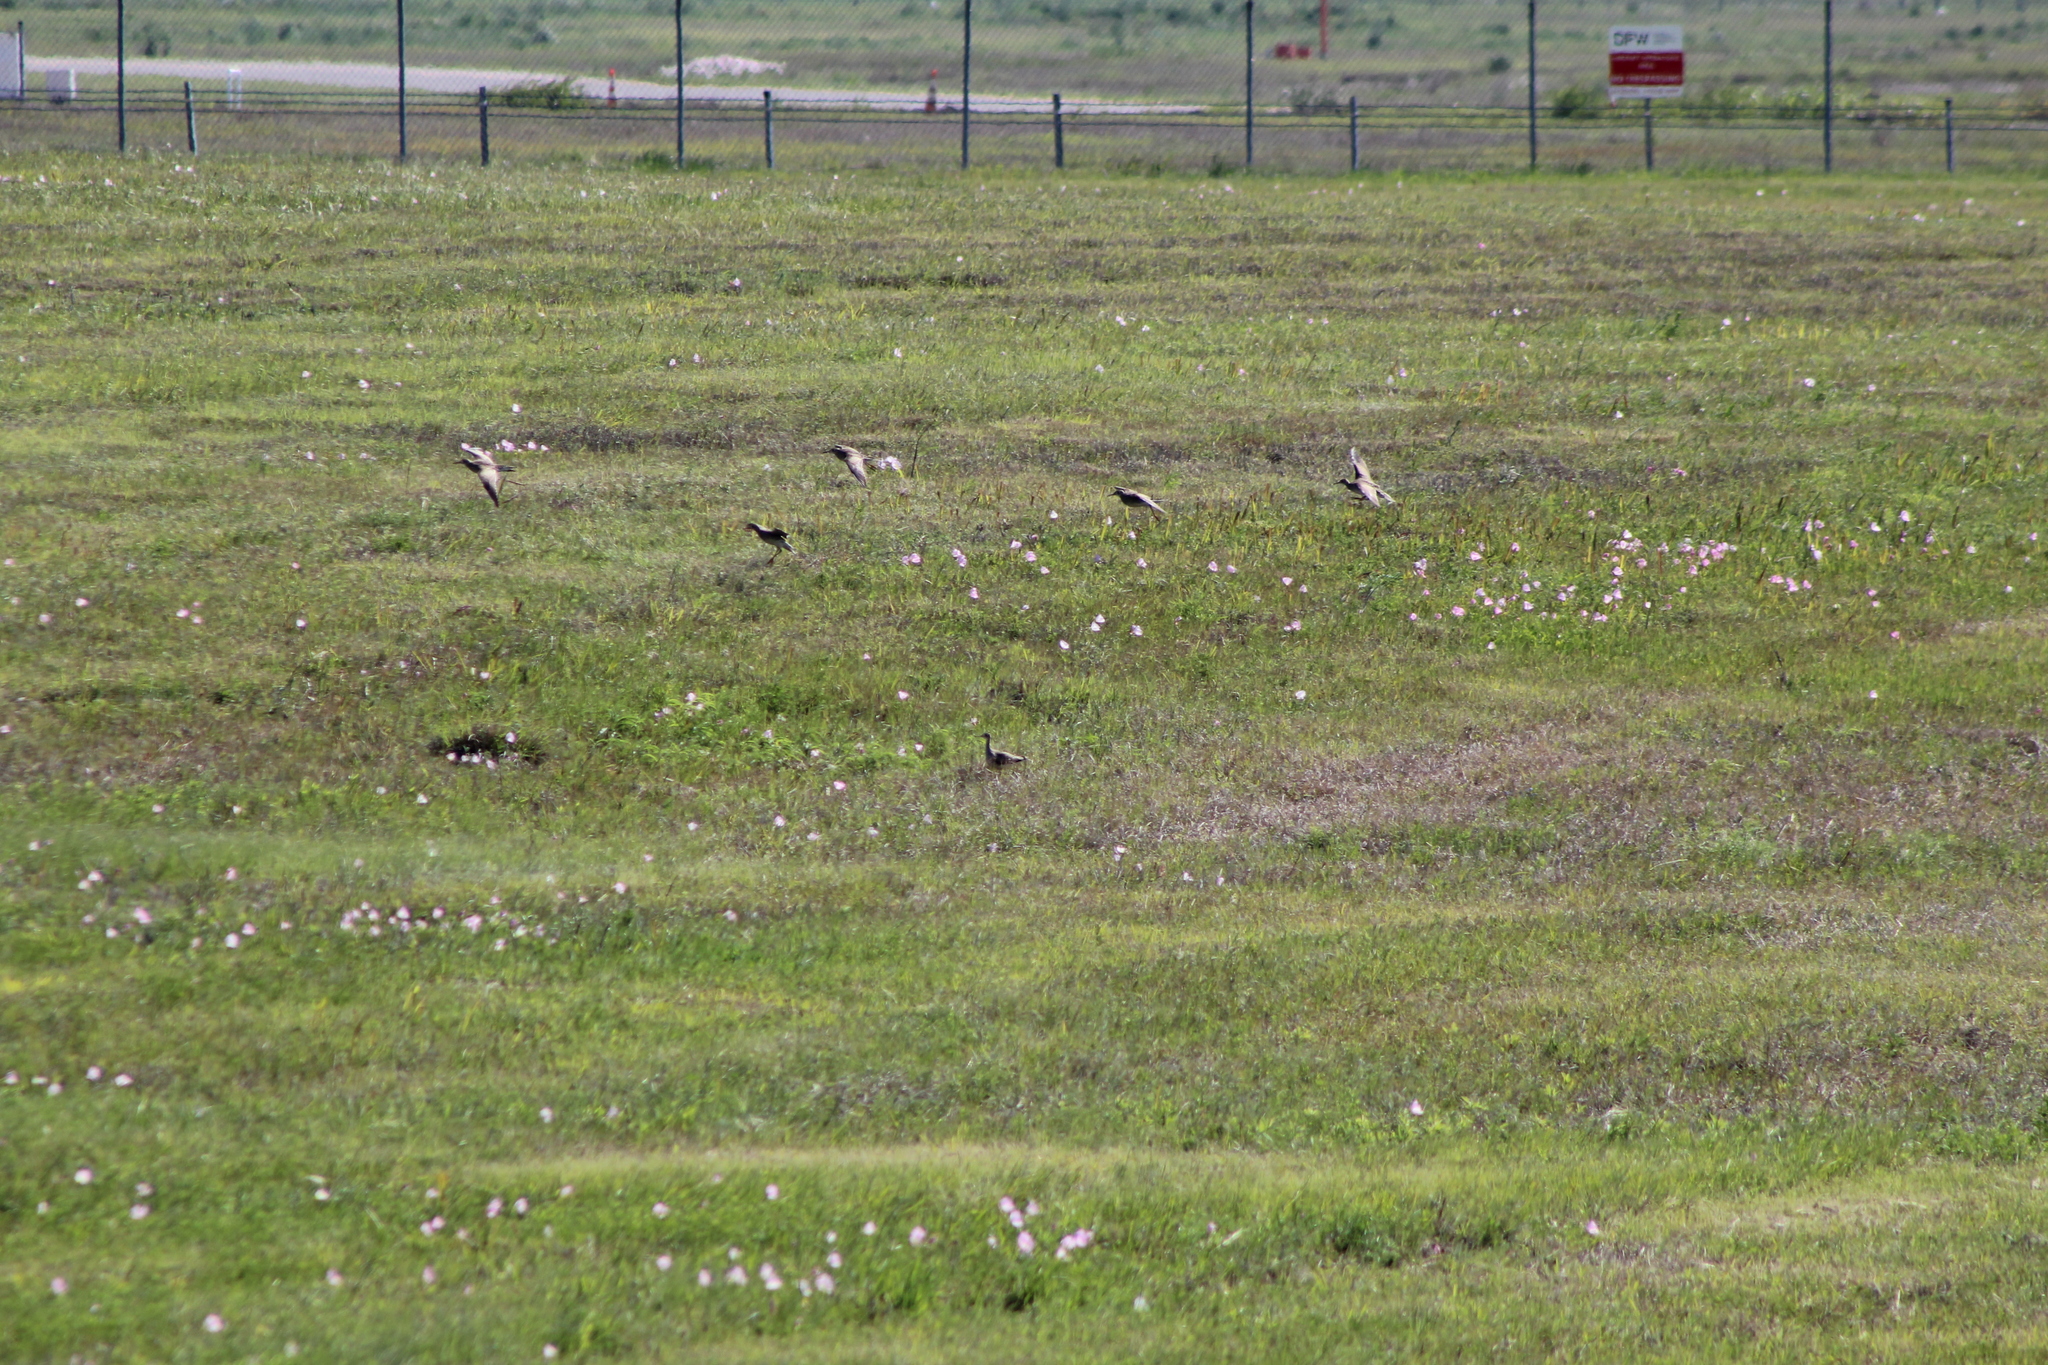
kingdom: Animalia
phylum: Chordata
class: Aves
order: Charadriiformes
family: Scolopacidae
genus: Bartramia
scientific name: Bartramia longicauda
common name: Upland sandpiper
